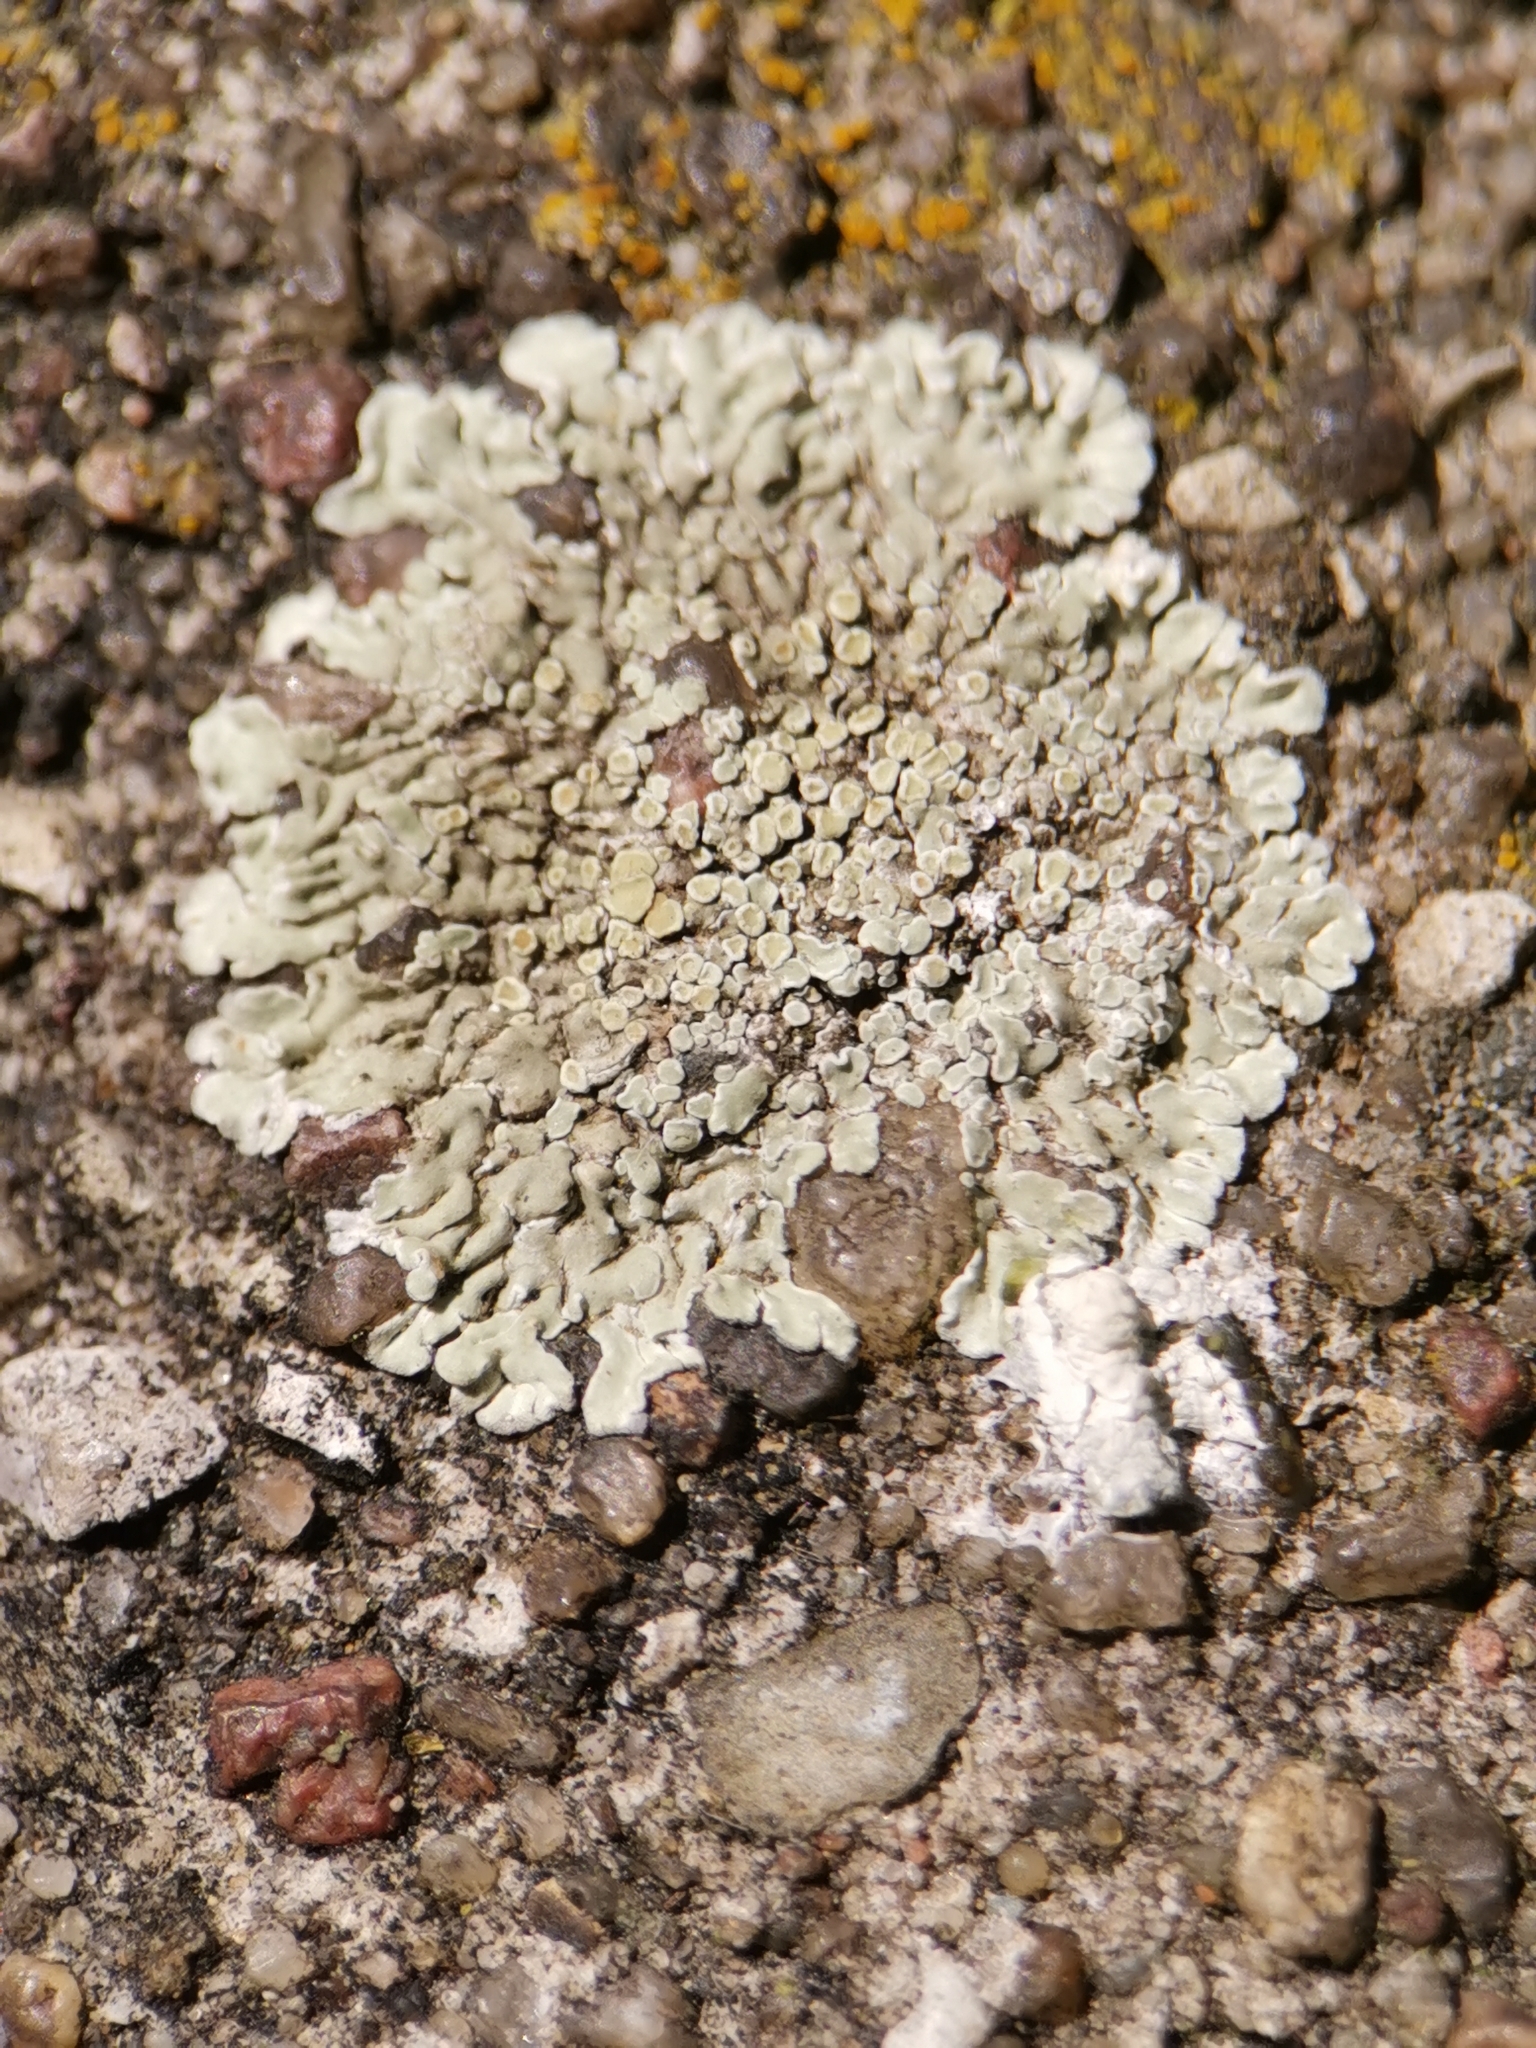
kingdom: Fungi
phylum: Ascomycota
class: Lecanoromycetes
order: Lecanorales
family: Lecanoraceae
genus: Protoparmeliopsis
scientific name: Protoparmeliopsis muralis
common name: Stonewall rim lichen
